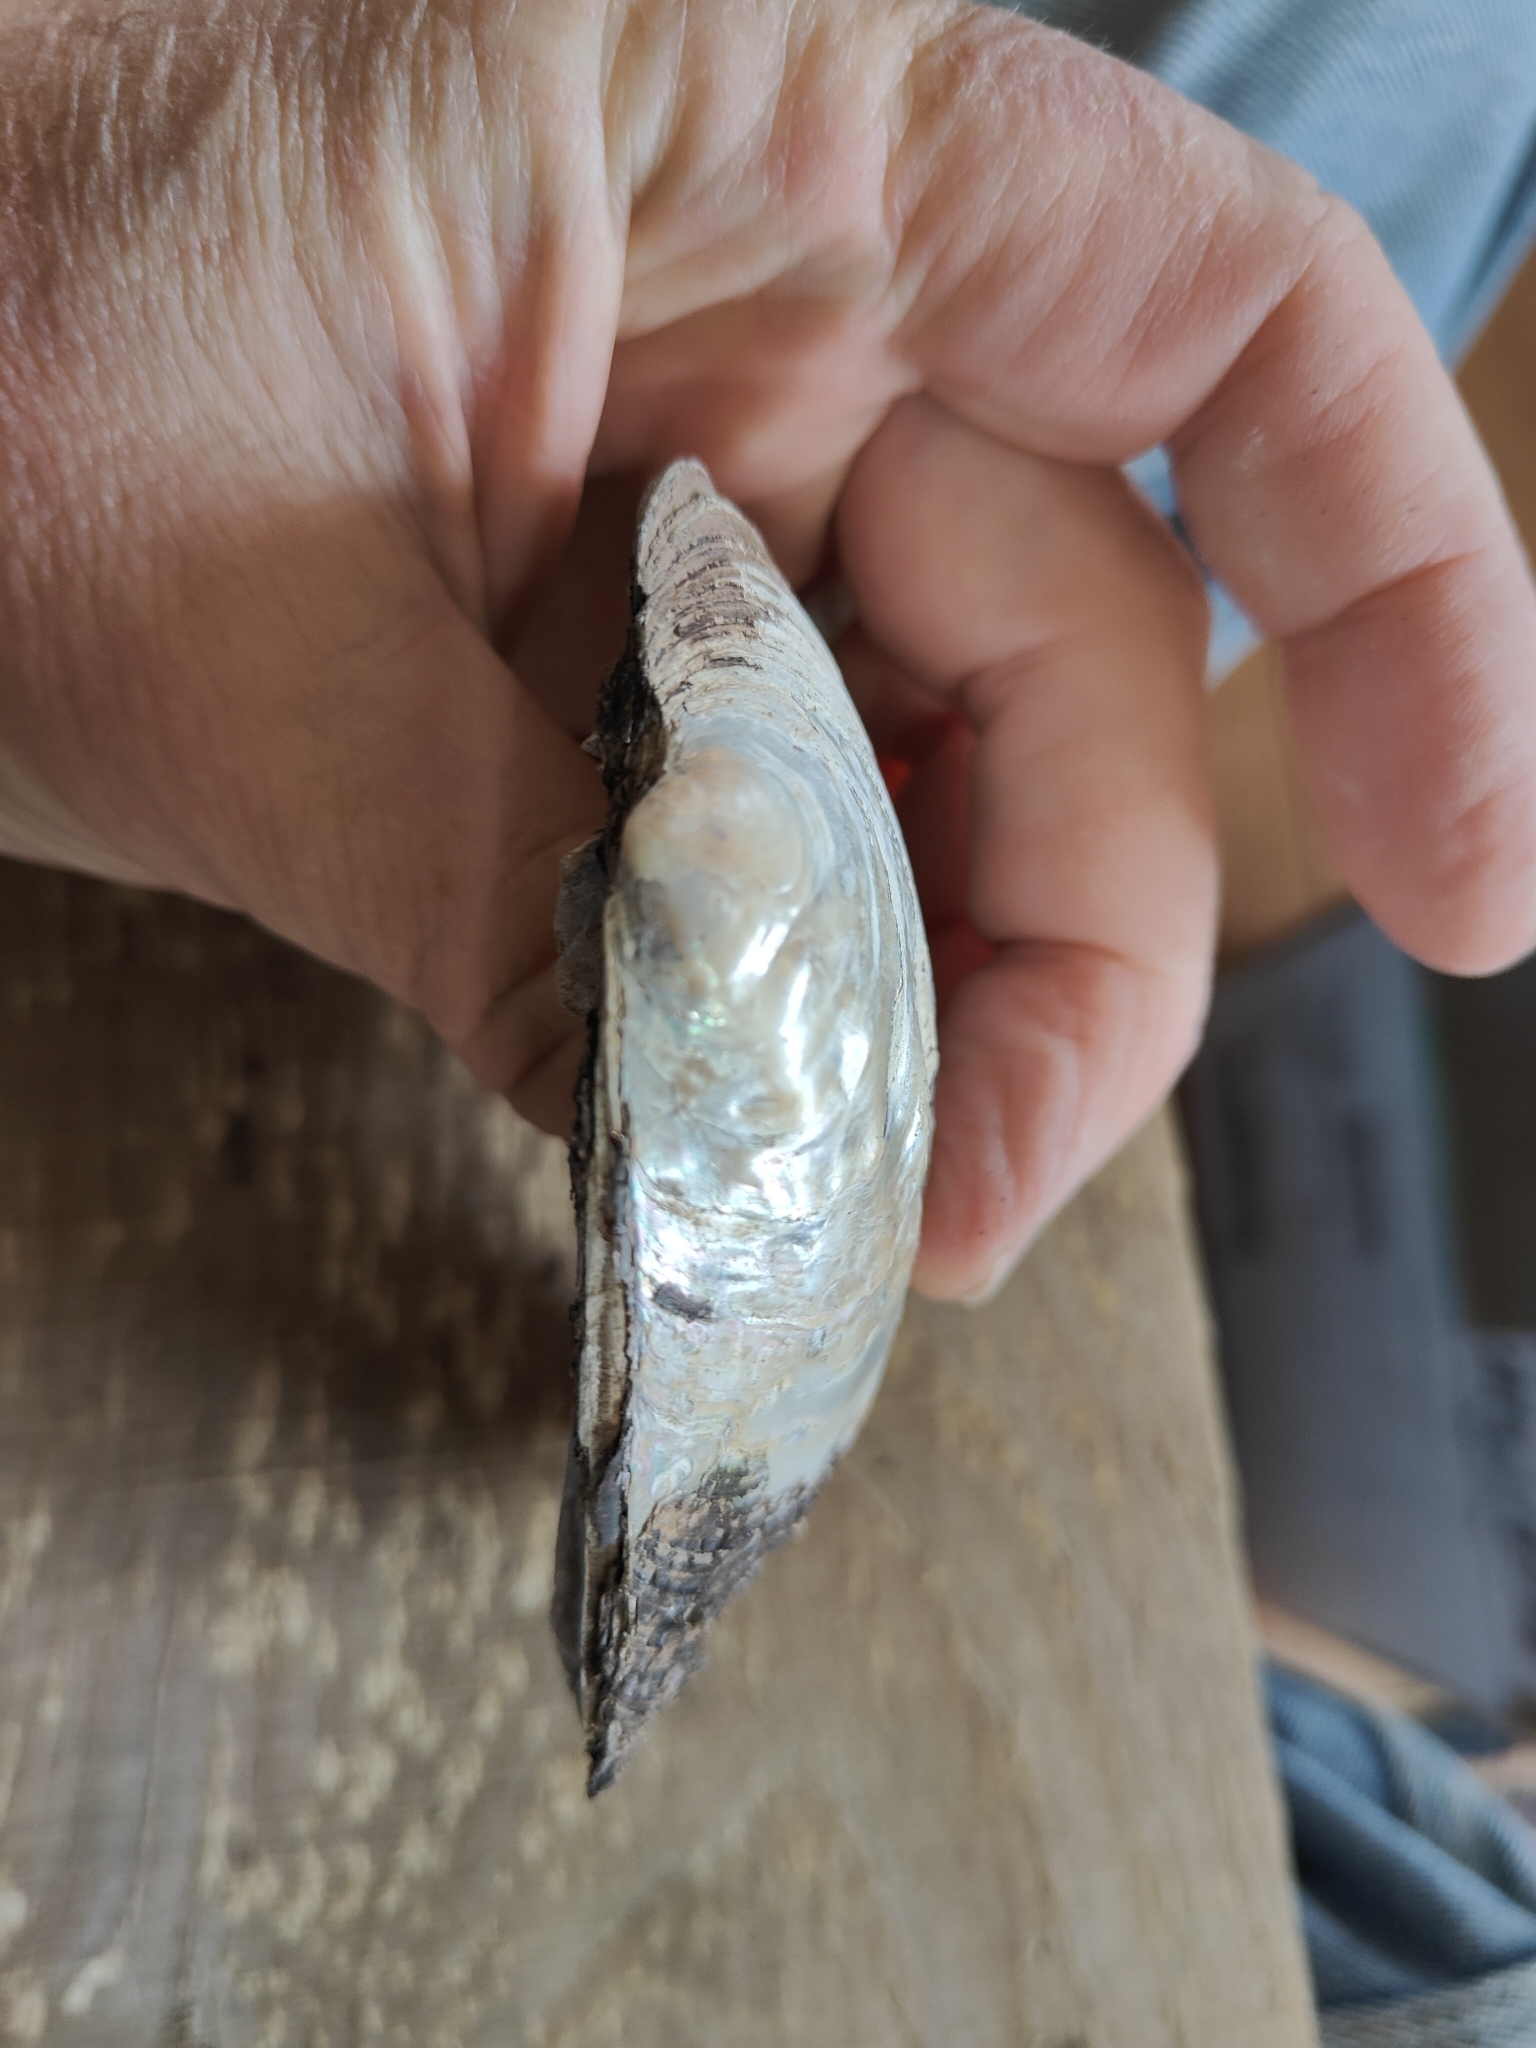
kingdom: Animalia
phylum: Mollusca
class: Bivalvia
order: Unionida
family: Unionidae
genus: Amblema
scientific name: Amblema plicata
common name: Threeridge
